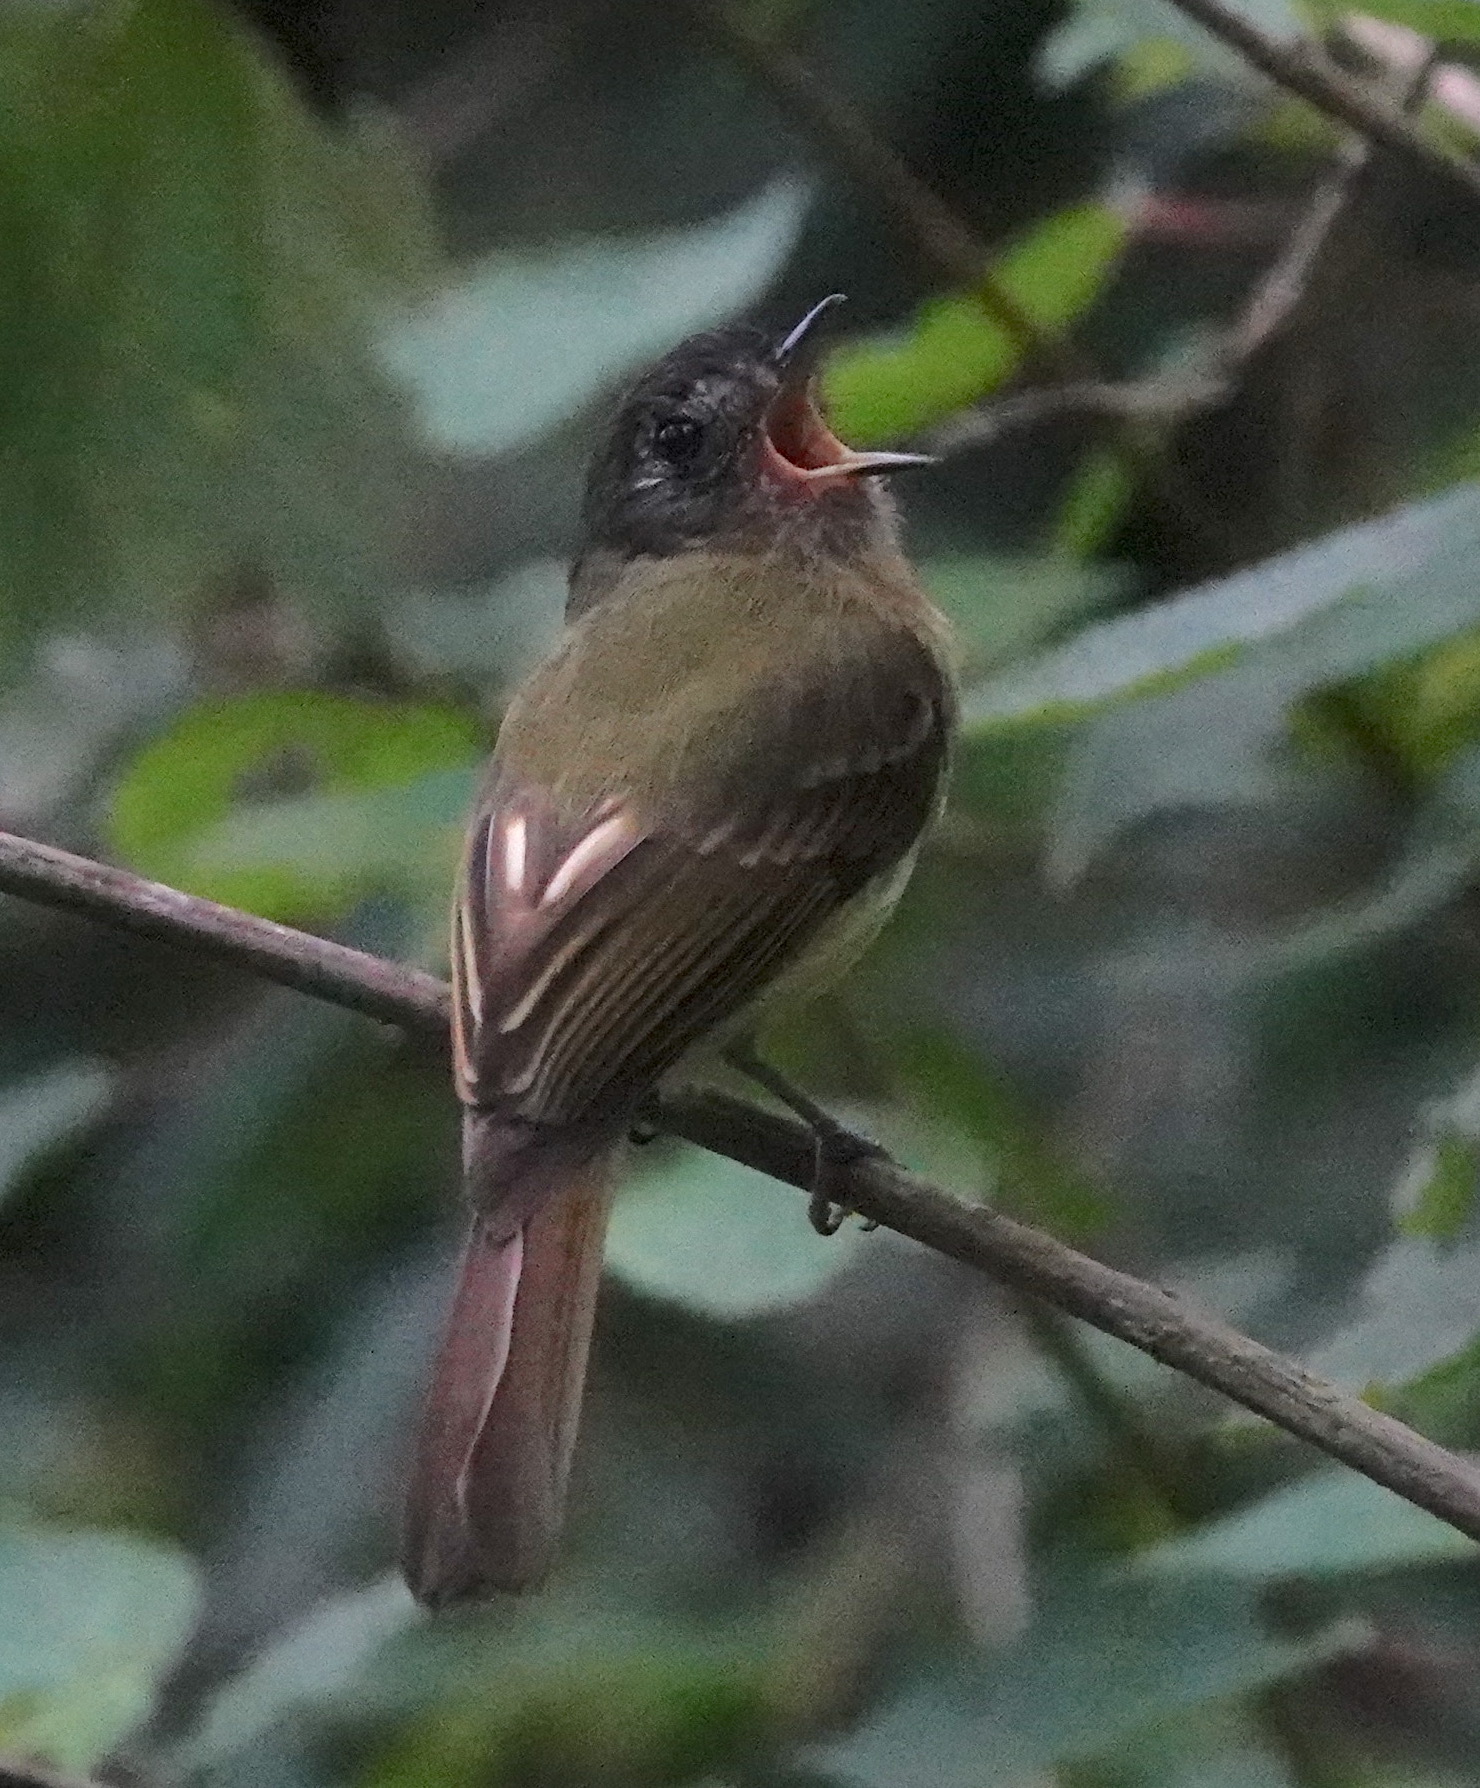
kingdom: Animalia
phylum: Chordata
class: Aves
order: Passeriformes
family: Tyrannidae
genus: Leptopogon
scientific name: Leptopogon taczanowskii
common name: Inca flycatcher
